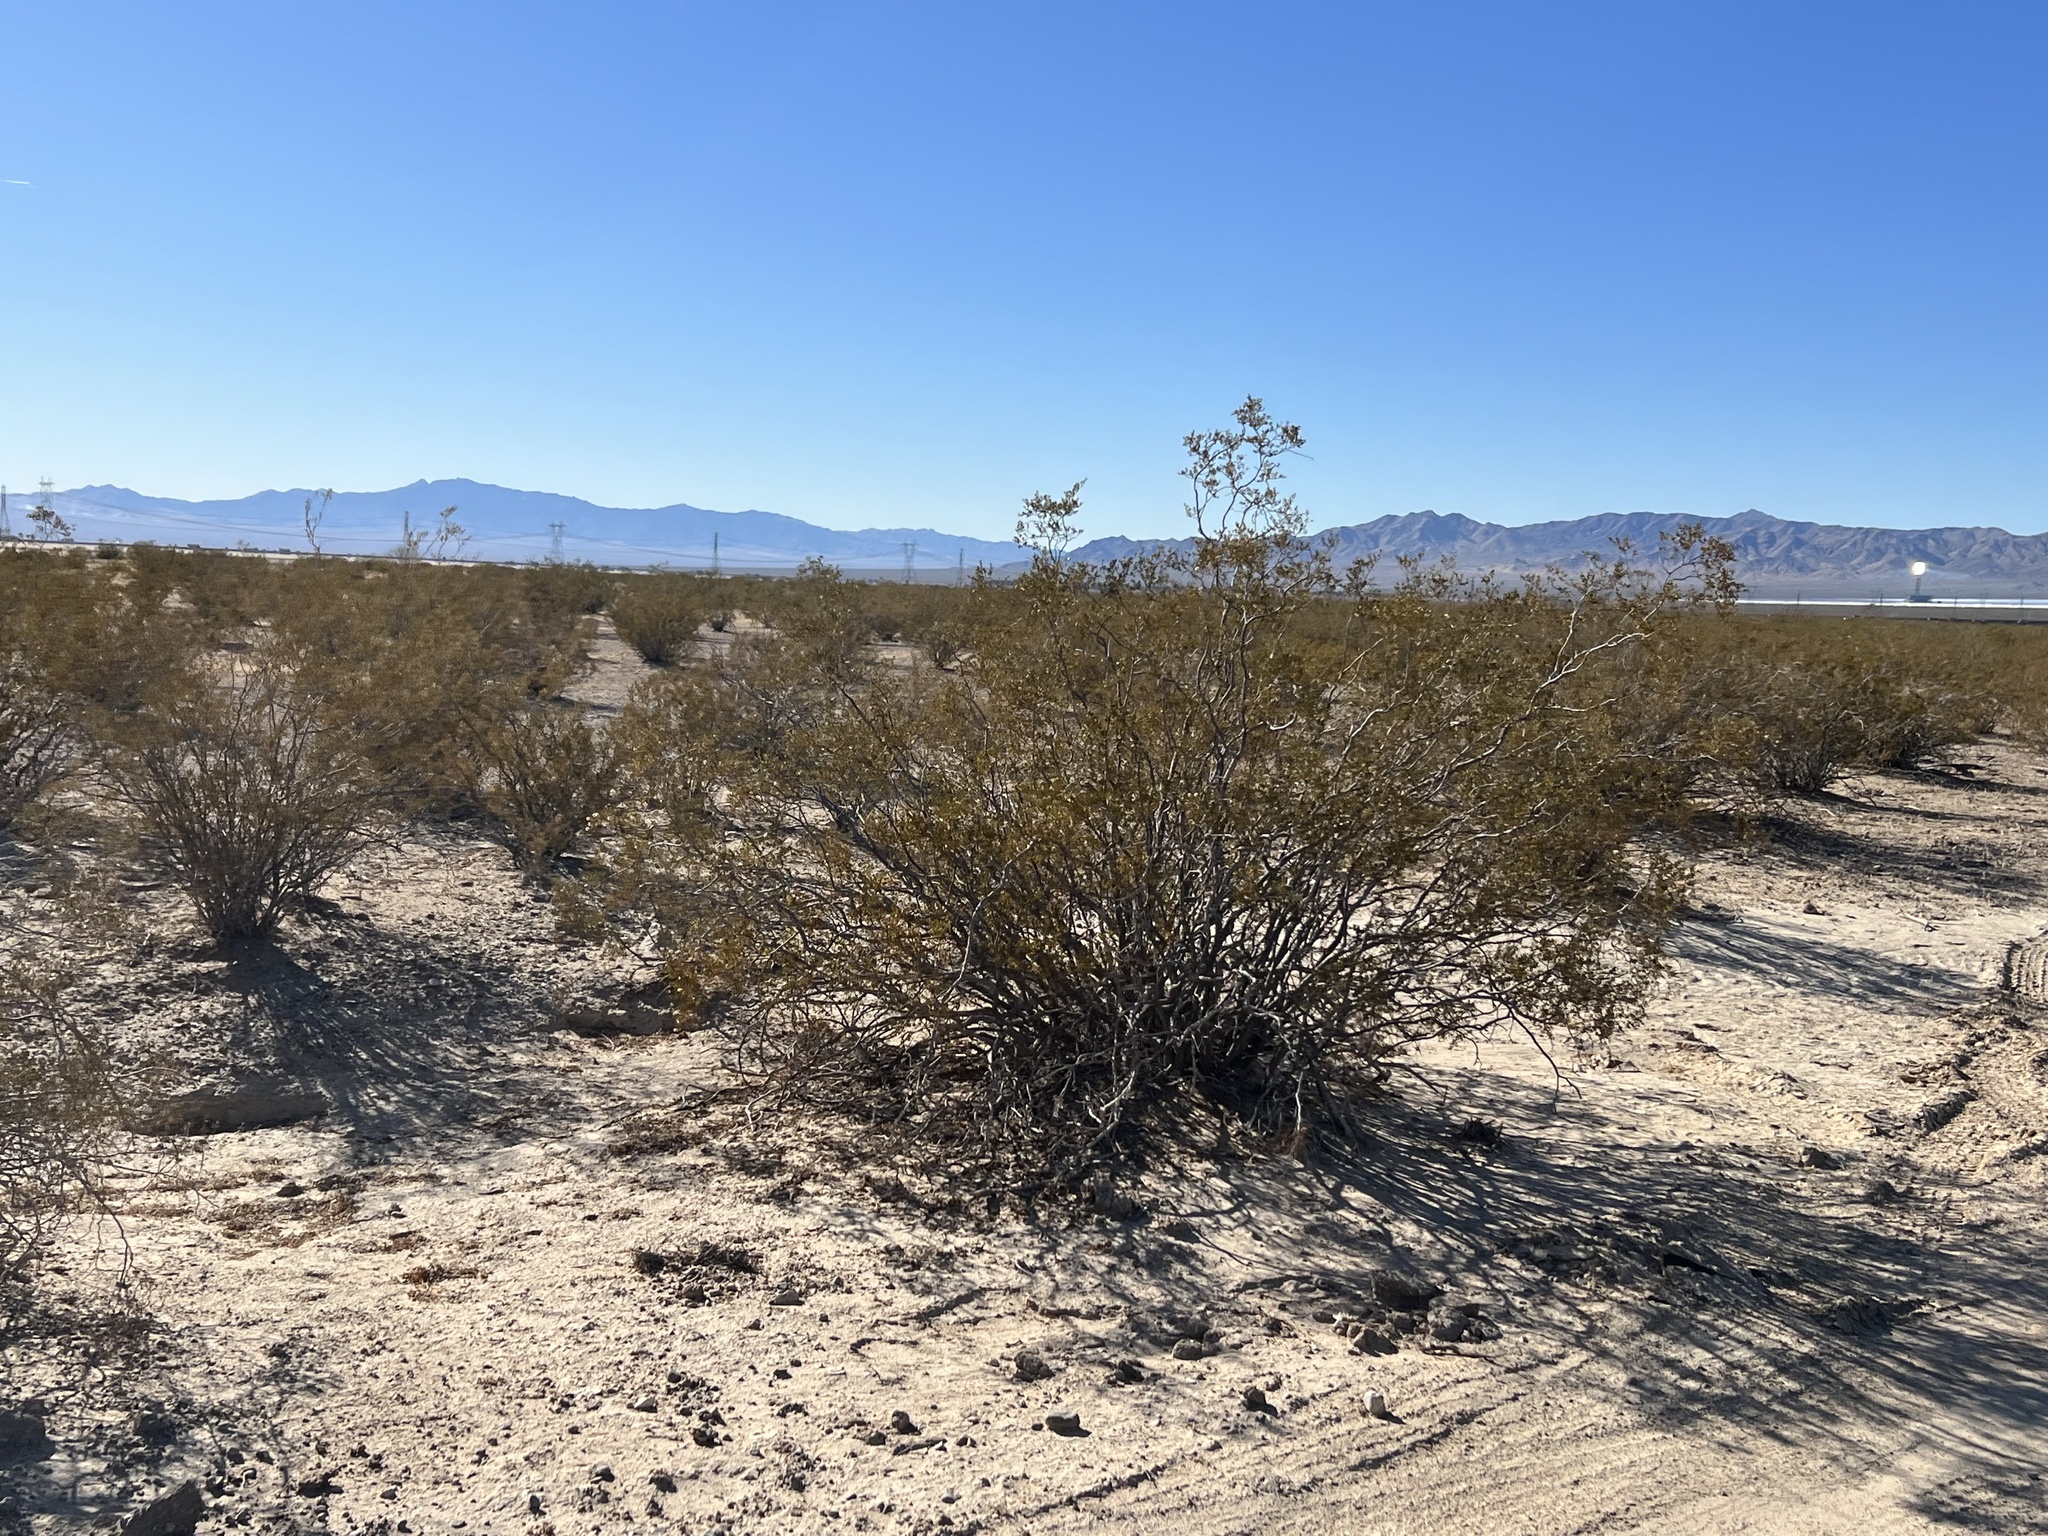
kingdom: Plantae
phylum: Tracheophyta
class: Magnoliopsida
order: Zygophyllales
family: Zygophyllaceae
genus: Larrea
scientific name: Larrea tridentata
